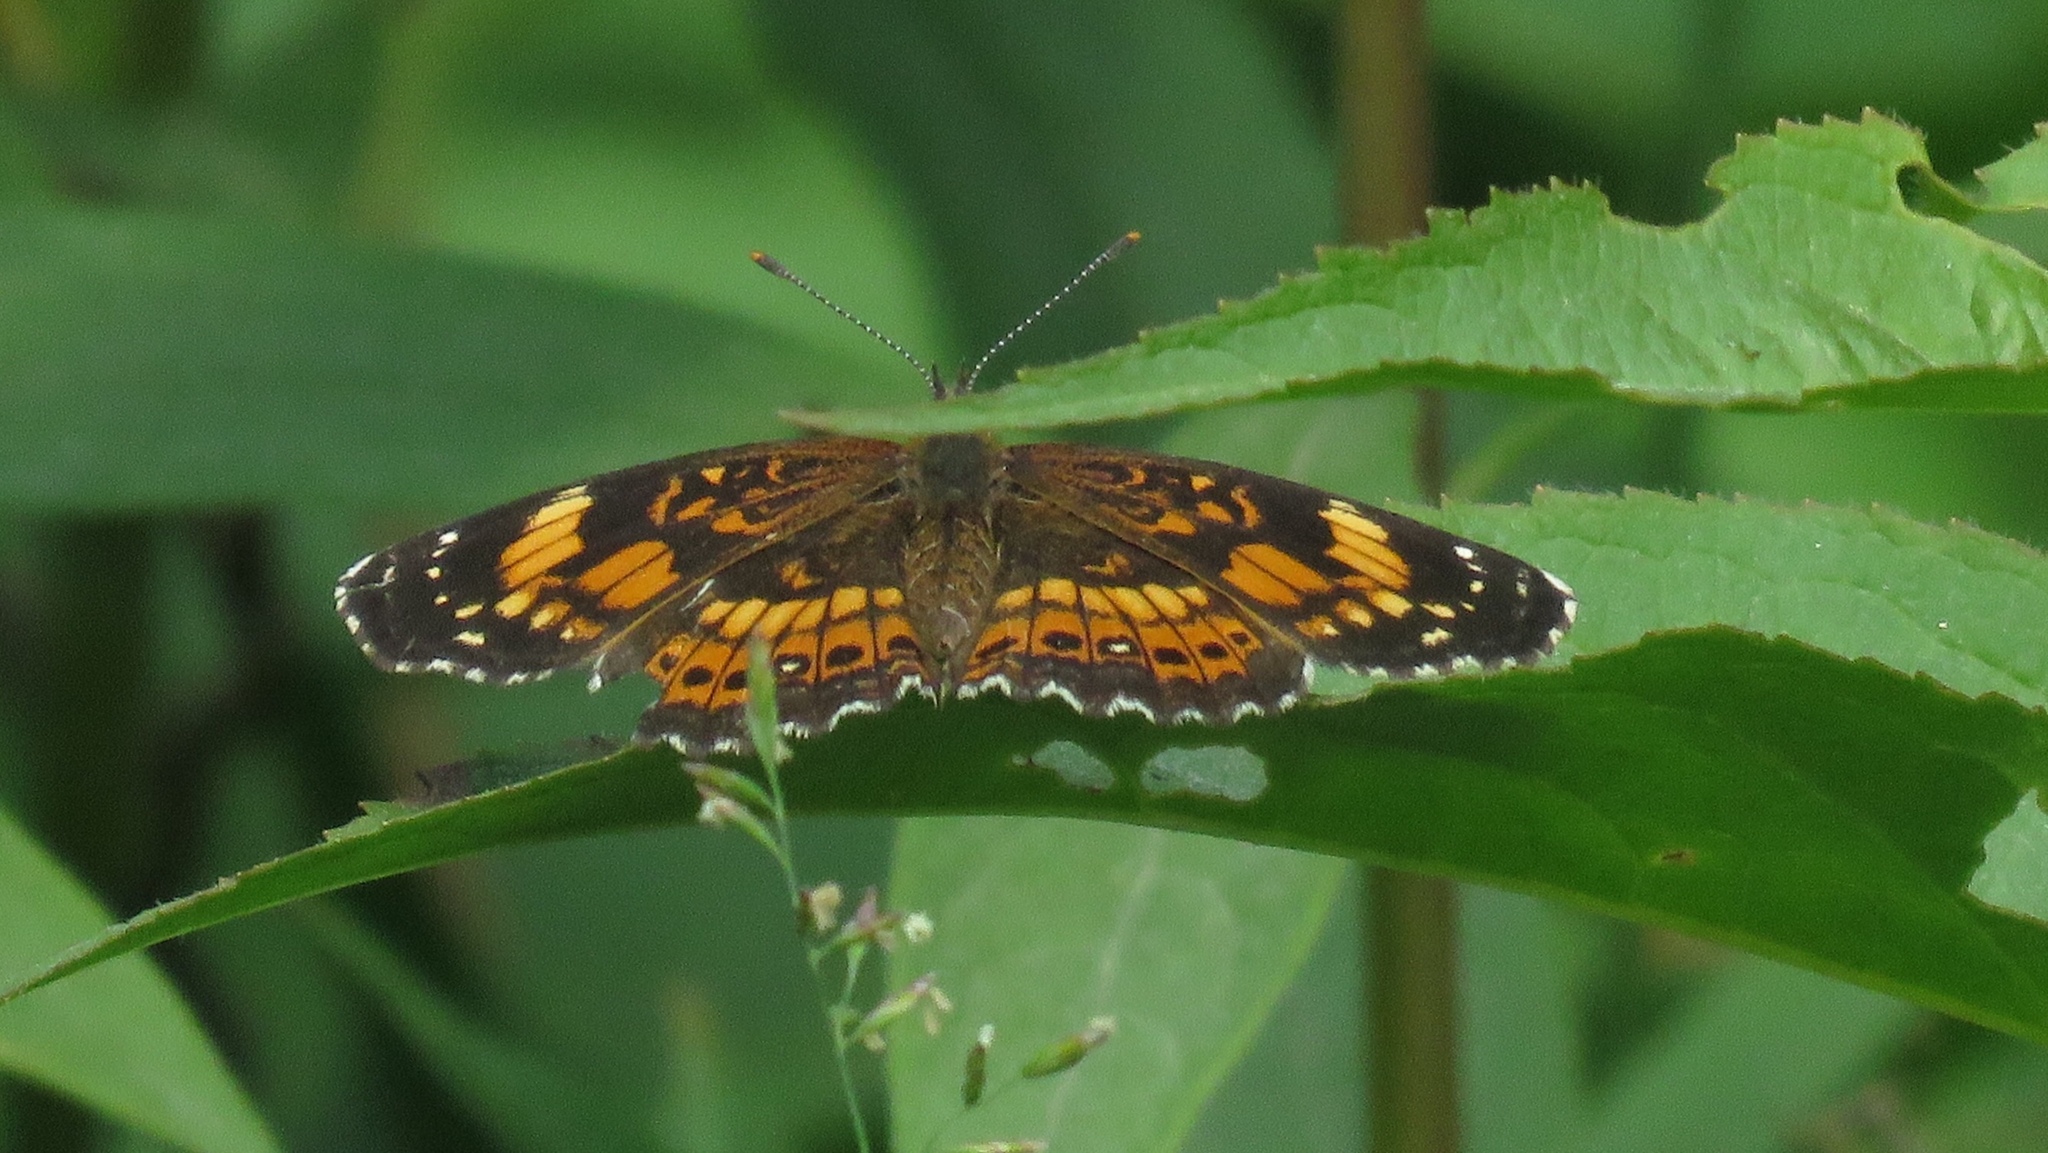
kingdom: Animalia
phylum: Arthropoda
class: Insecta
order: Lepidoptera
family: Nymphalidae
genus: Chlosyne
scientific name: Chlosyne nycteis
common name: Silvery checkerspot
